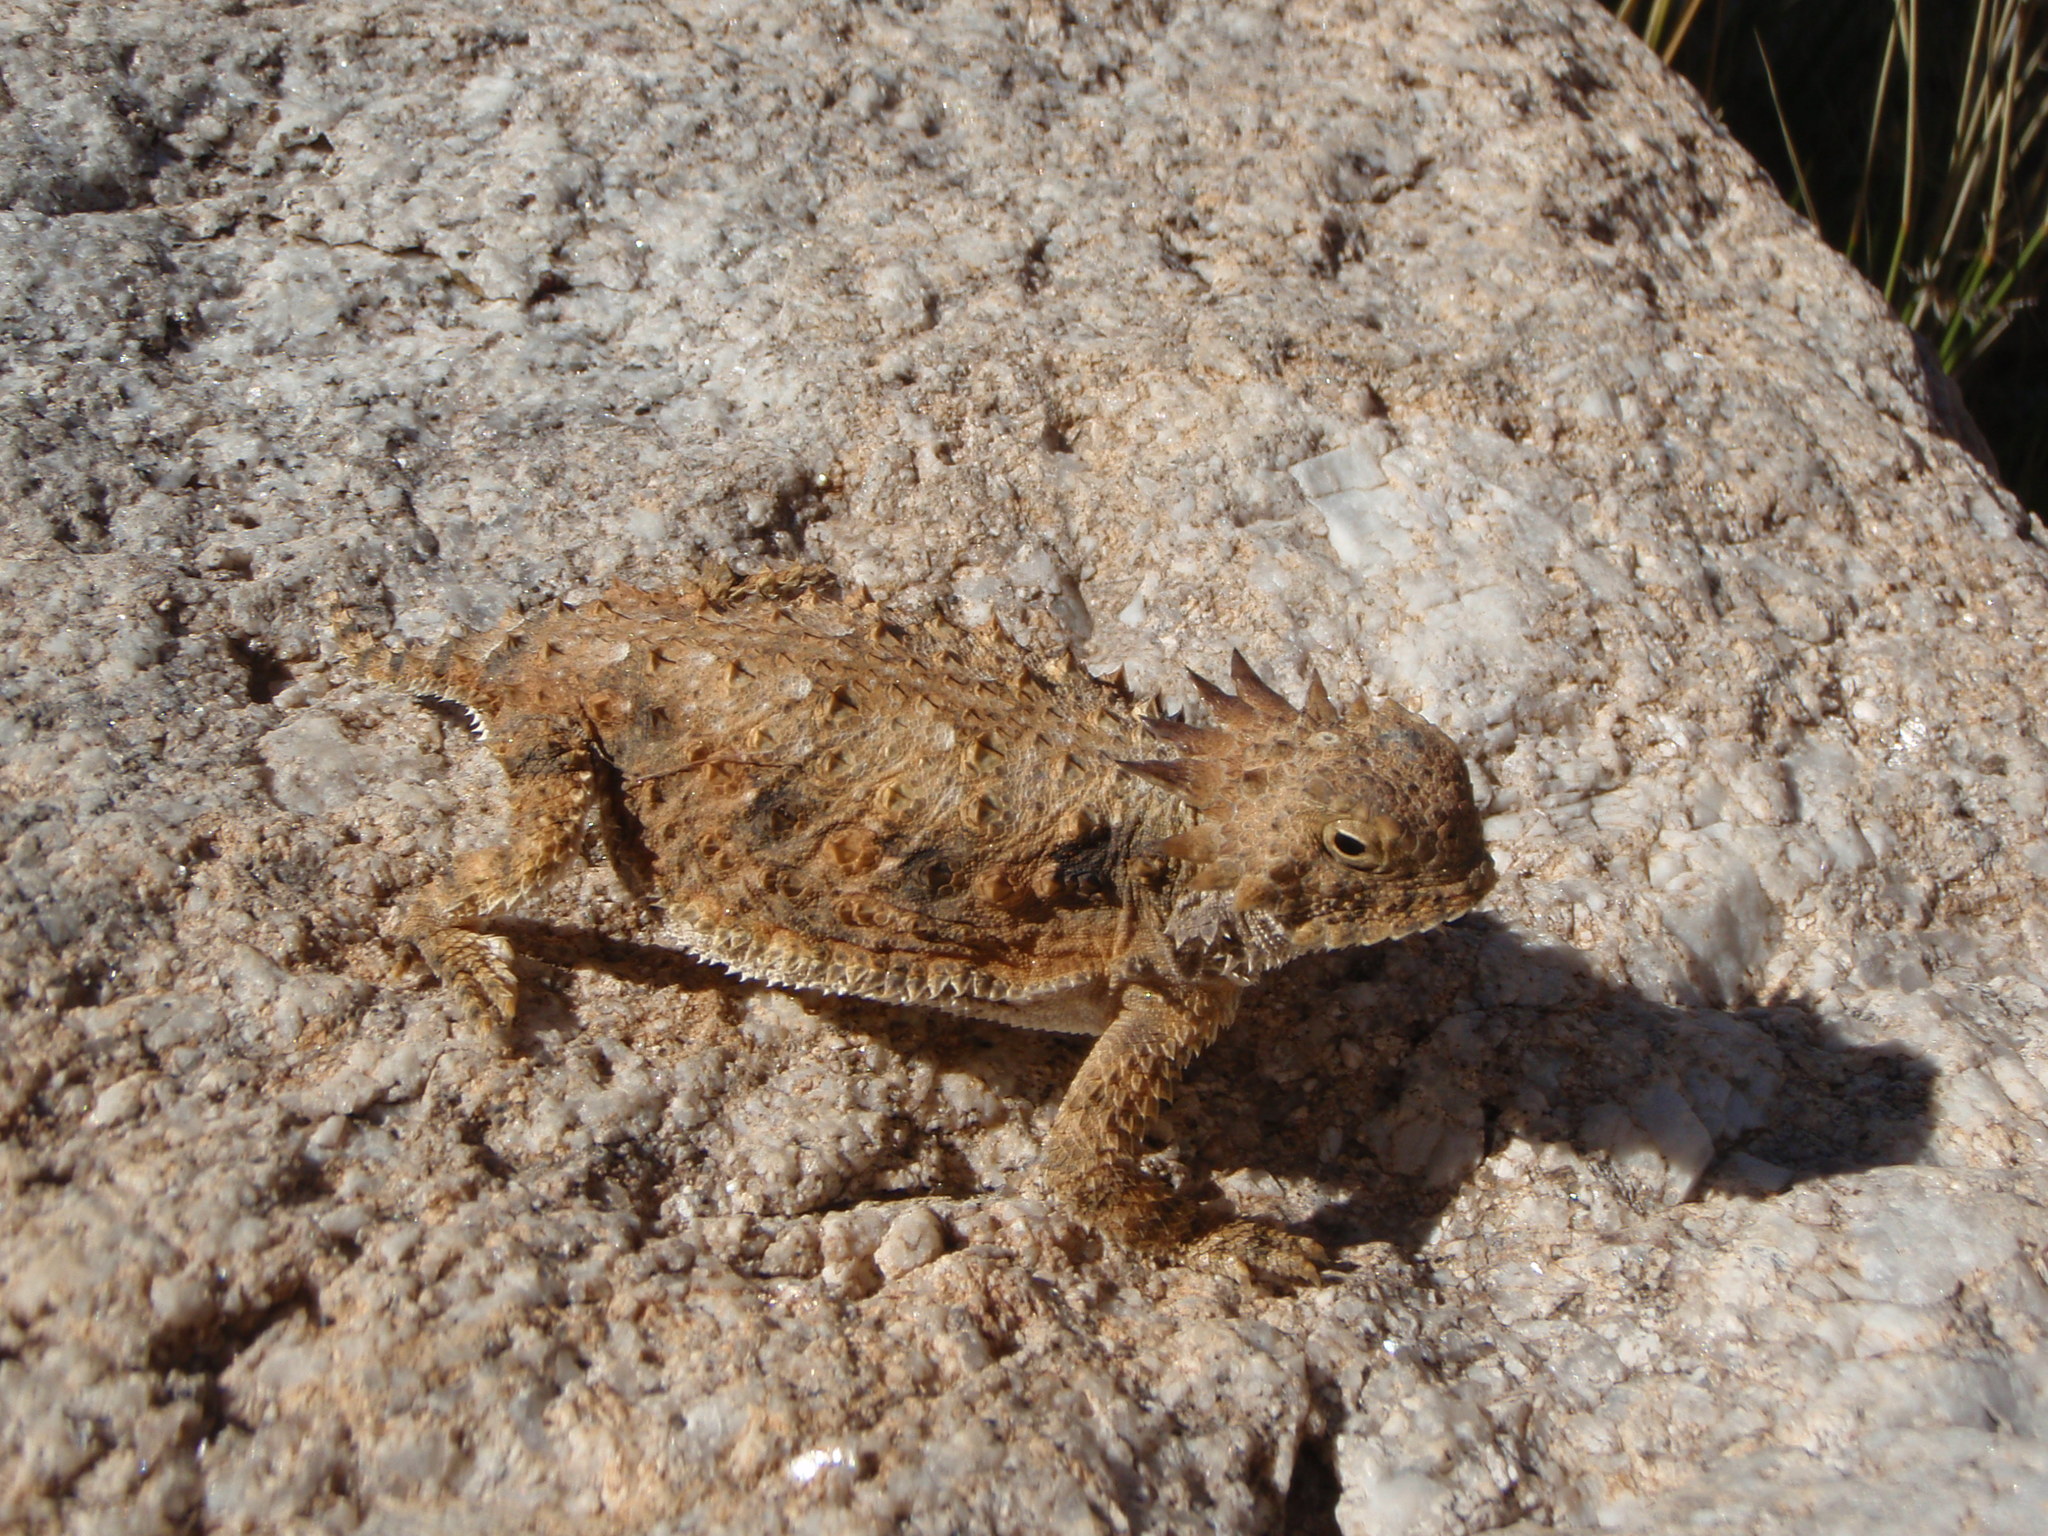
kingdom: Animalia
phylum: Chordata
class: Squamata
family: Phrynosomatidae
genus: Phrynosoma
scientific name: Phrynosoma solare
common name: Regal horned lizard
